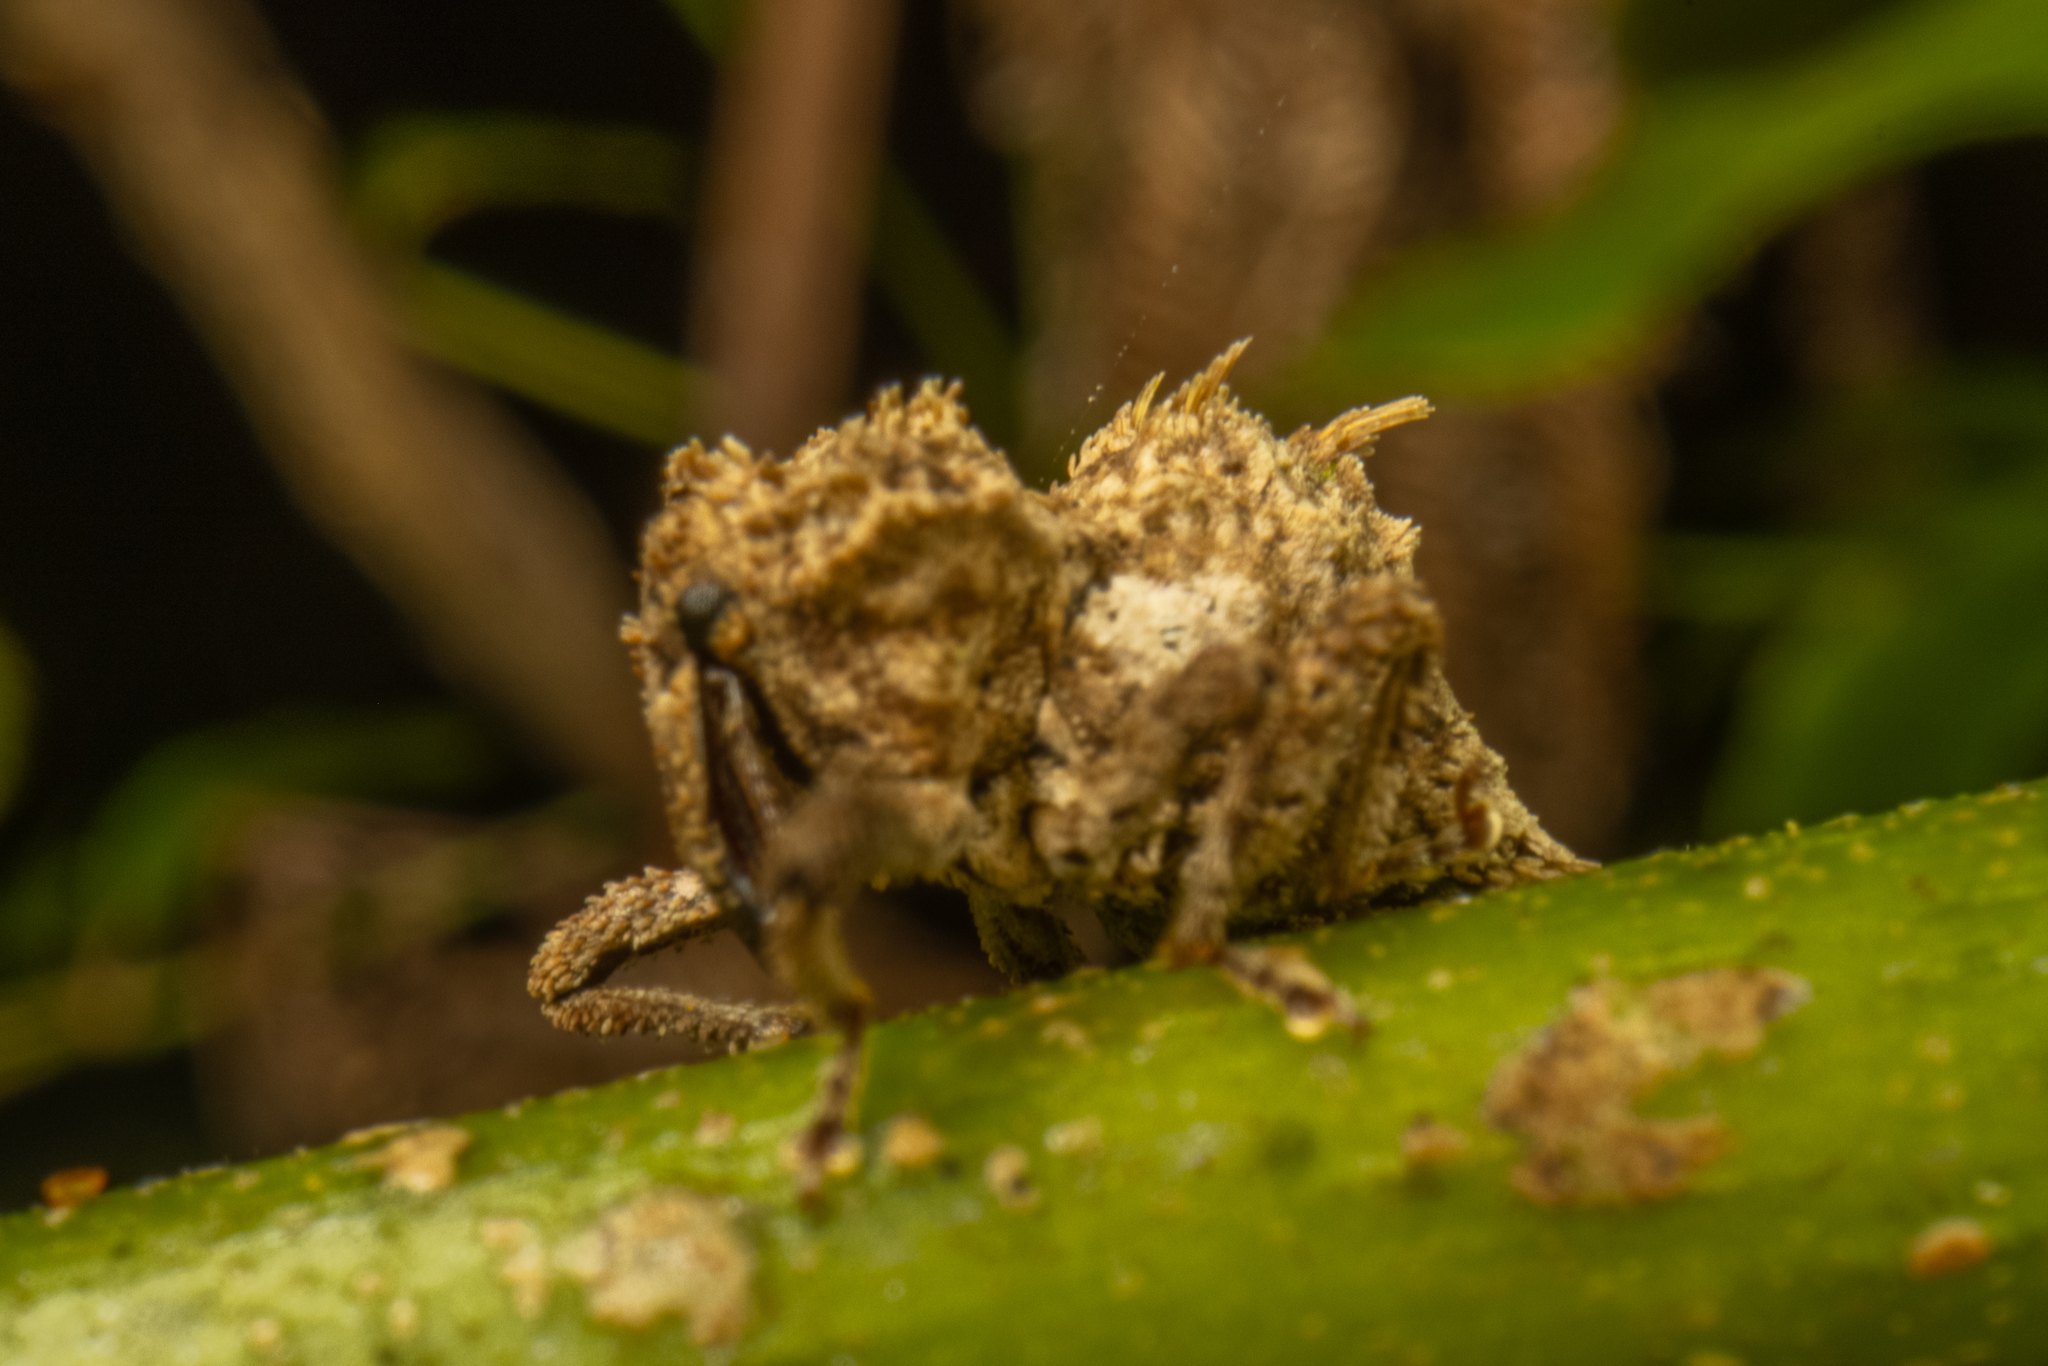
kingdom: Animalia
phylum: Arthropoda
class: Insecta
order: Coleoptera
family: Curculionidae
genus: Indecentia
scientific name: Indecentia nubila
